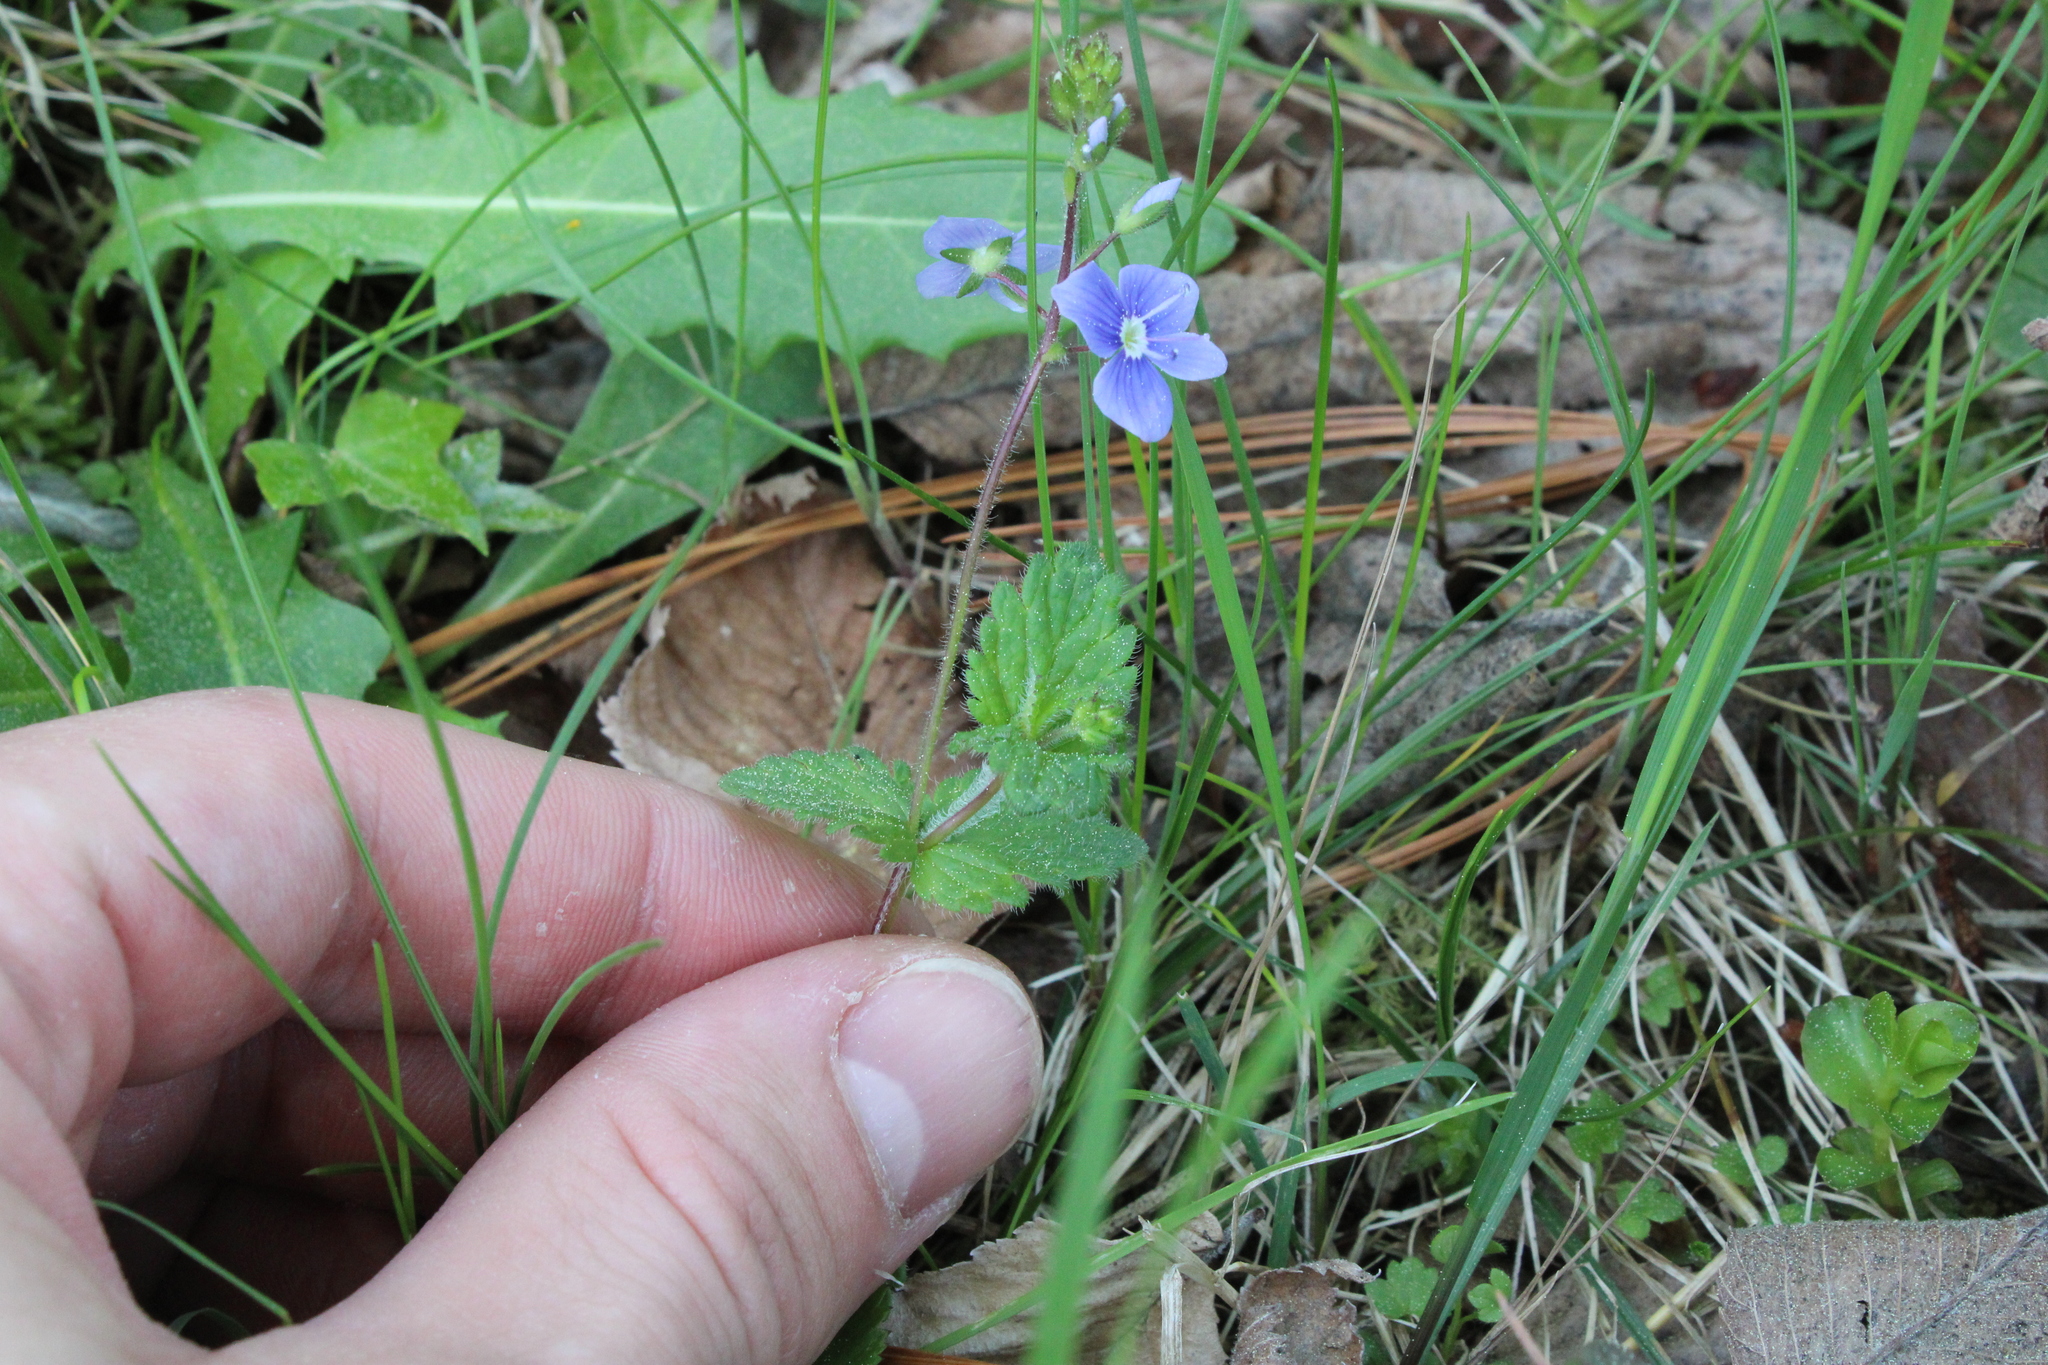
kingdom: Plantae
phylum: Tracheophyta
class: Magnoliopsida
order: Lamiales
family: Plantaginaceae
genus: Veronica
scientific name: Veronica chamaedrys
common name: Germander speedwell
